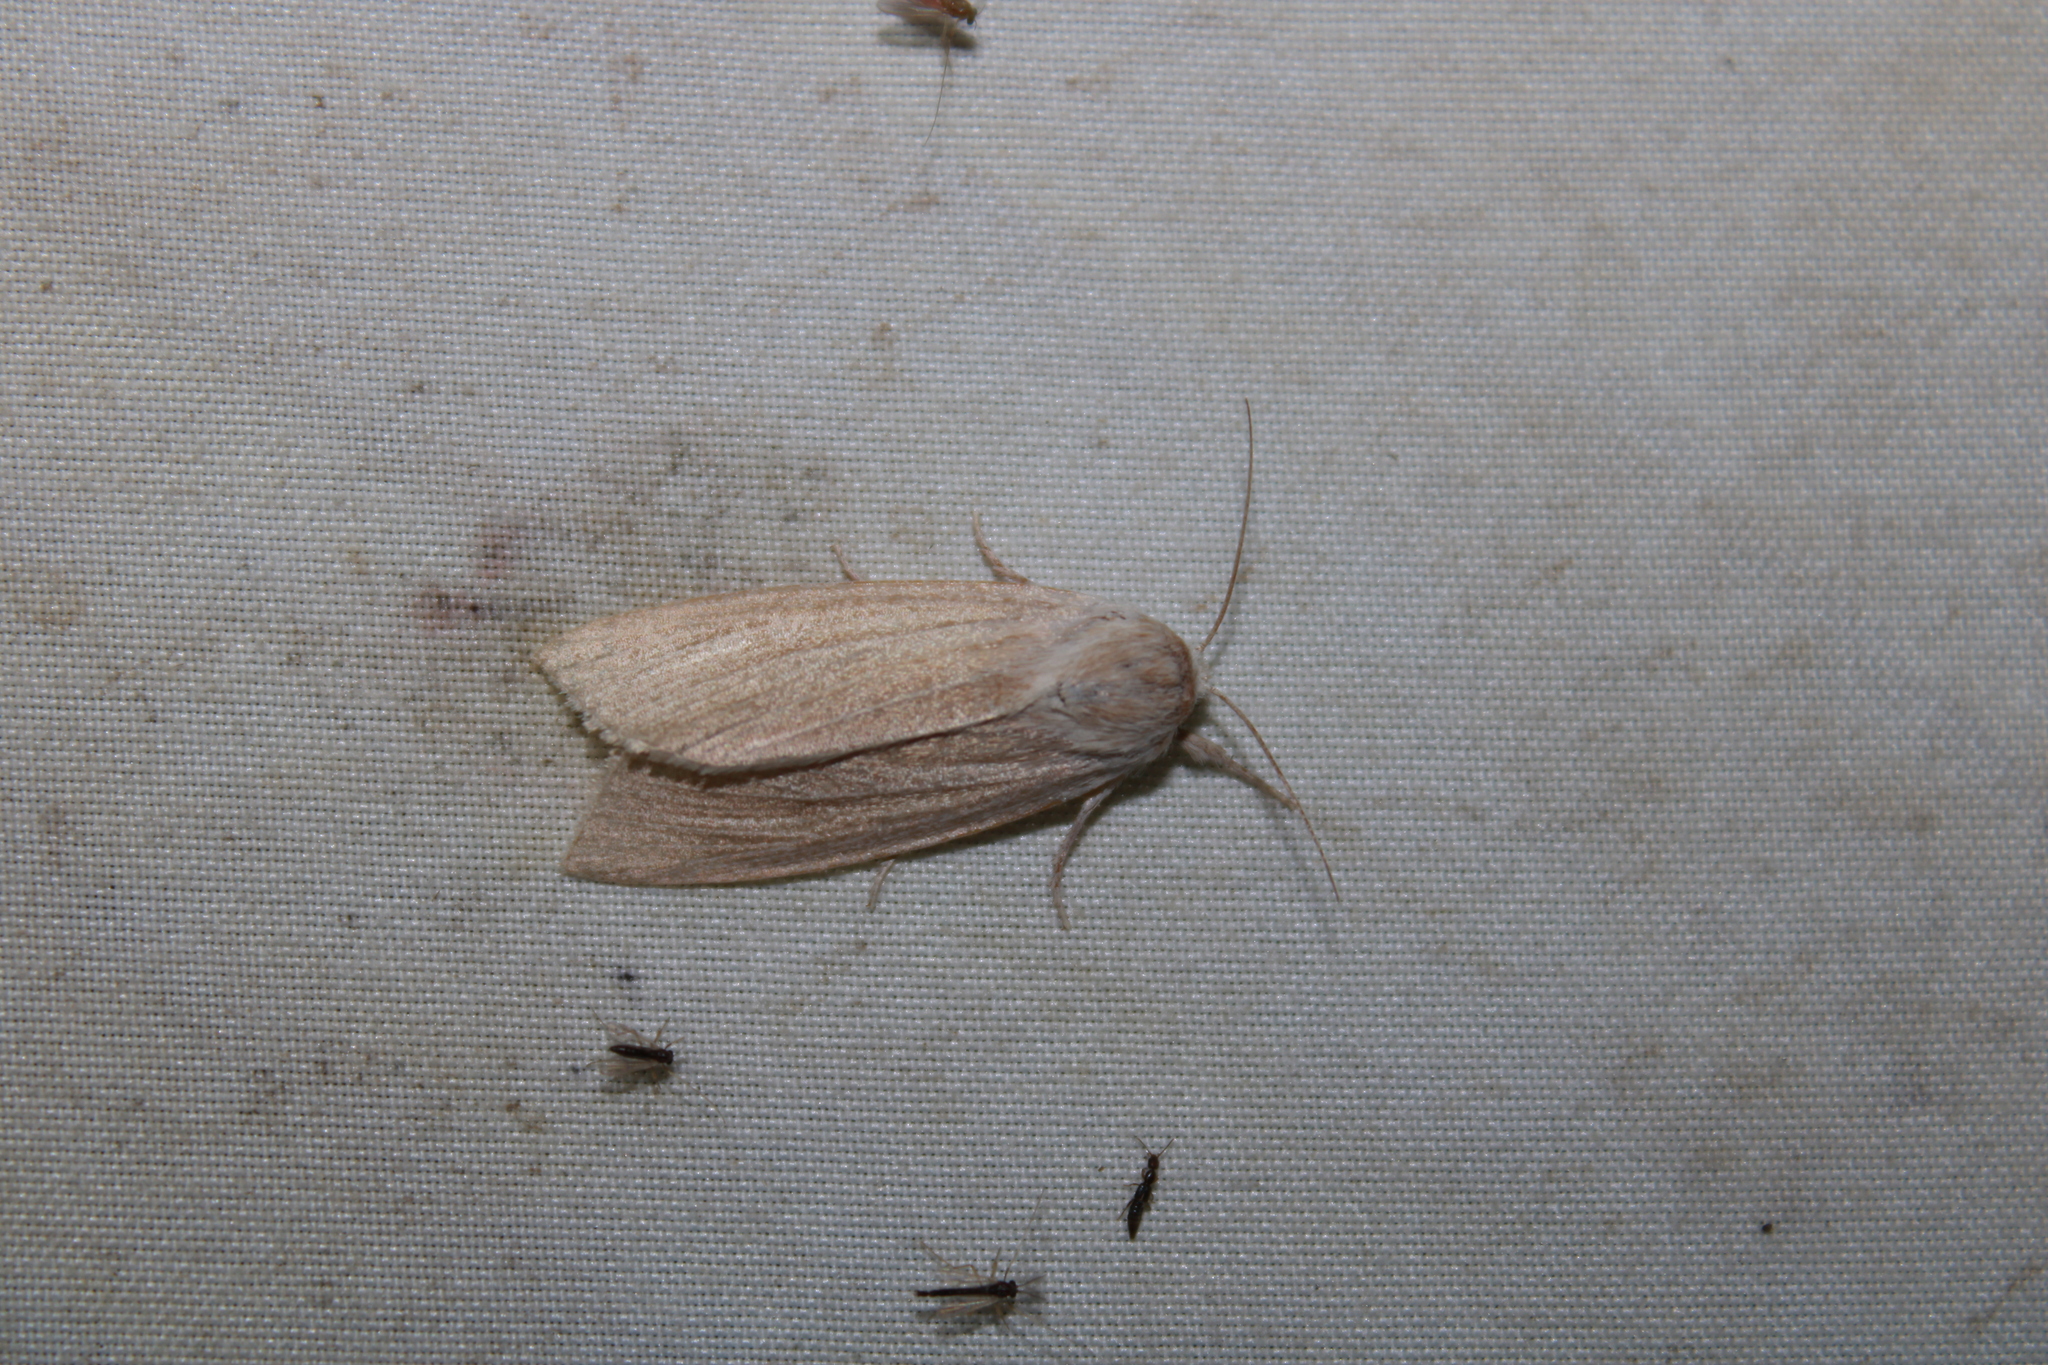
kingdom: Animalia
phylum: Arthropoda
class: Insecta
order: Lepidoptera
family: Noctuidae
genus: Acronicta
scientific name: Acronicta insularis
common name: Henry's marsh moth
